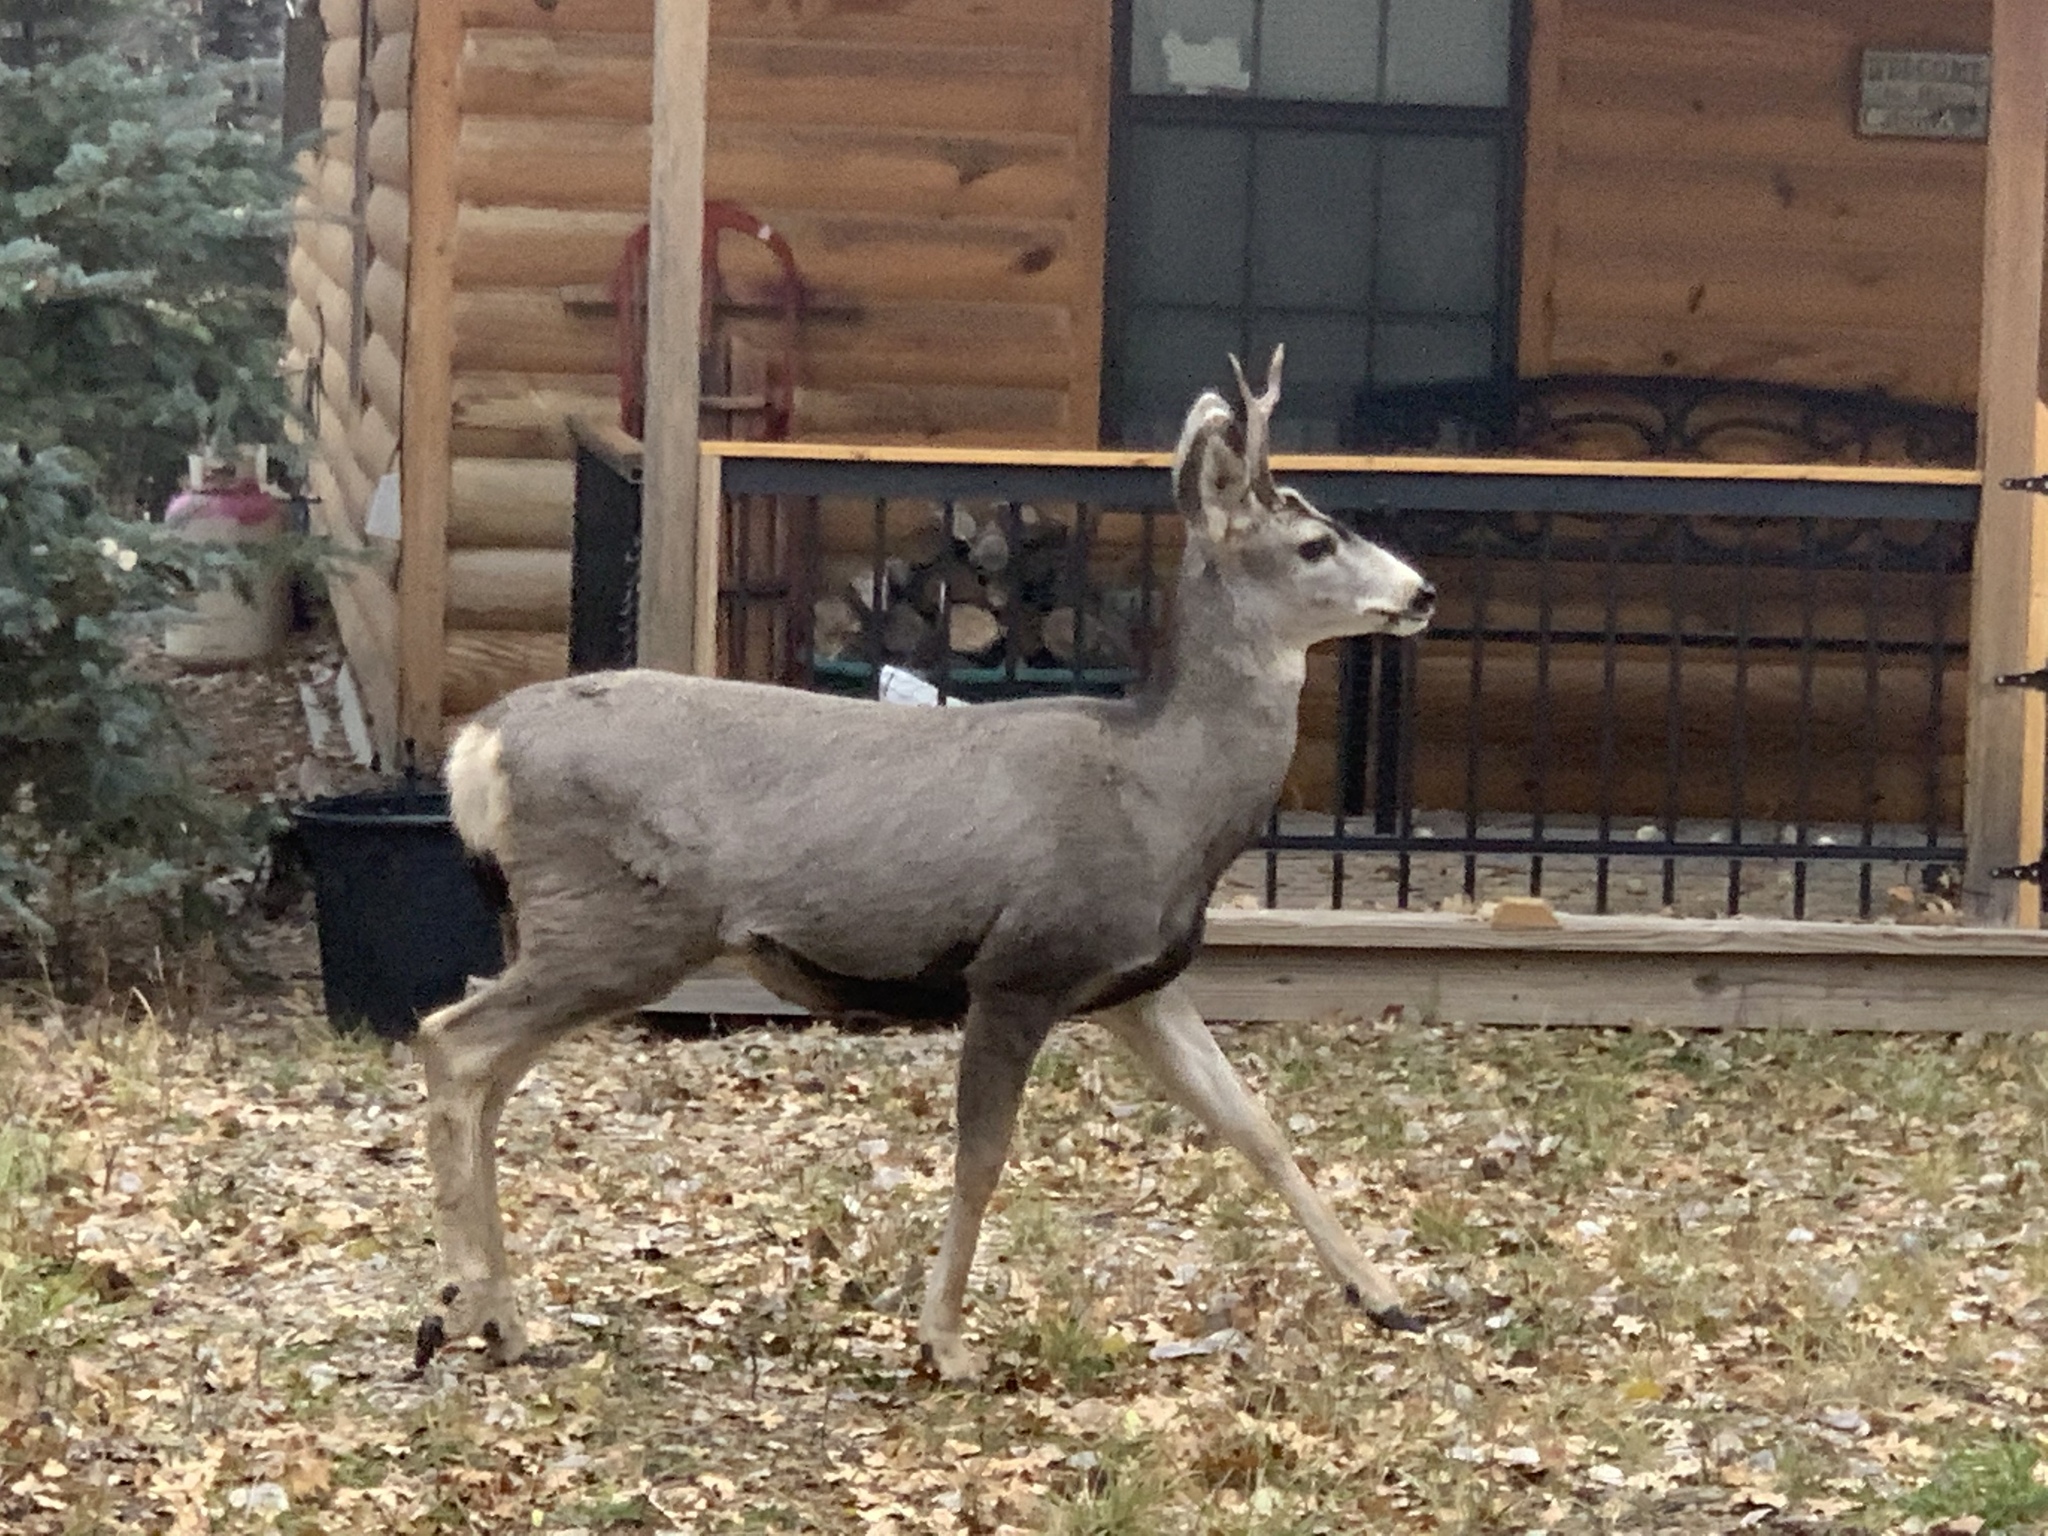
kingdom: Animalia
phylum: Chordata
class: Mammalia
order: Artiodactyla
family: Cervidae
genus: Odocoileus
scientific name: Odocoileus hemionus
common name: Mule deer
